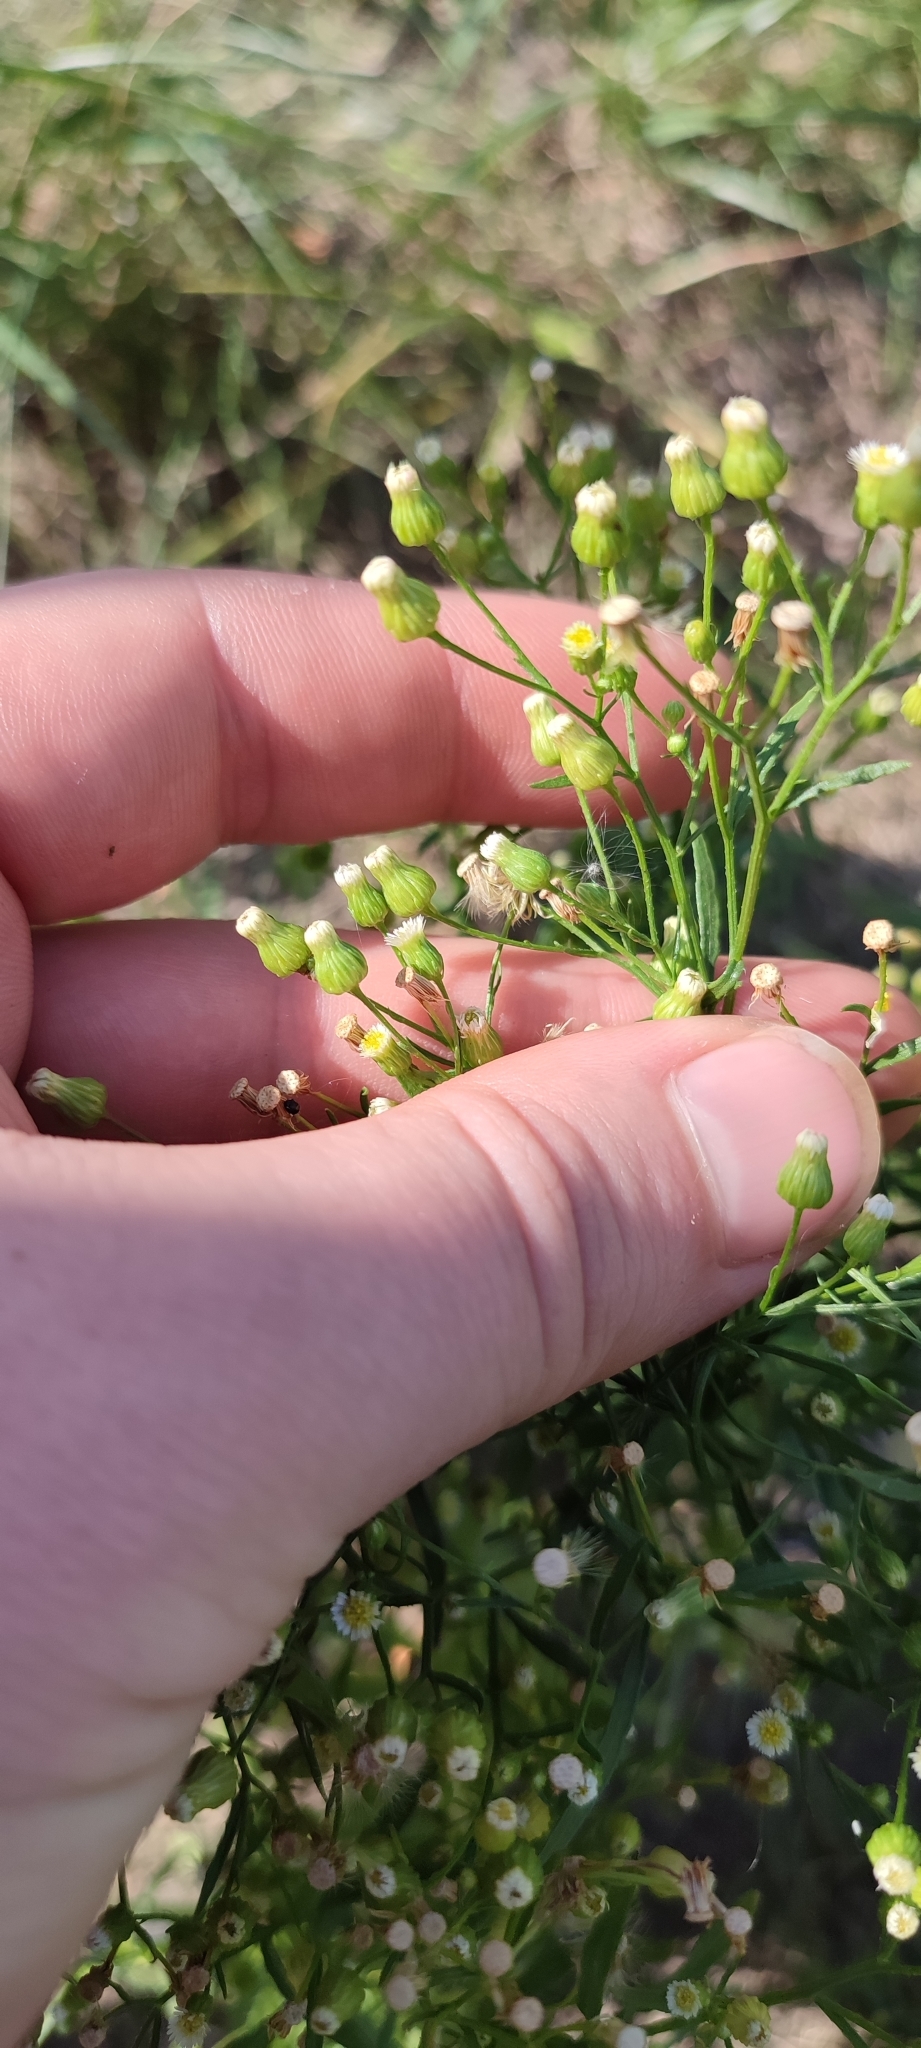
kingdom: Plantae
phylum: Tracheophyta
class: Magnoliopsida
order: Asterales
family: Asteraceae
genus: Erigeron
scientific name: Erigeron canadensis
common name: Canadian fleabane
